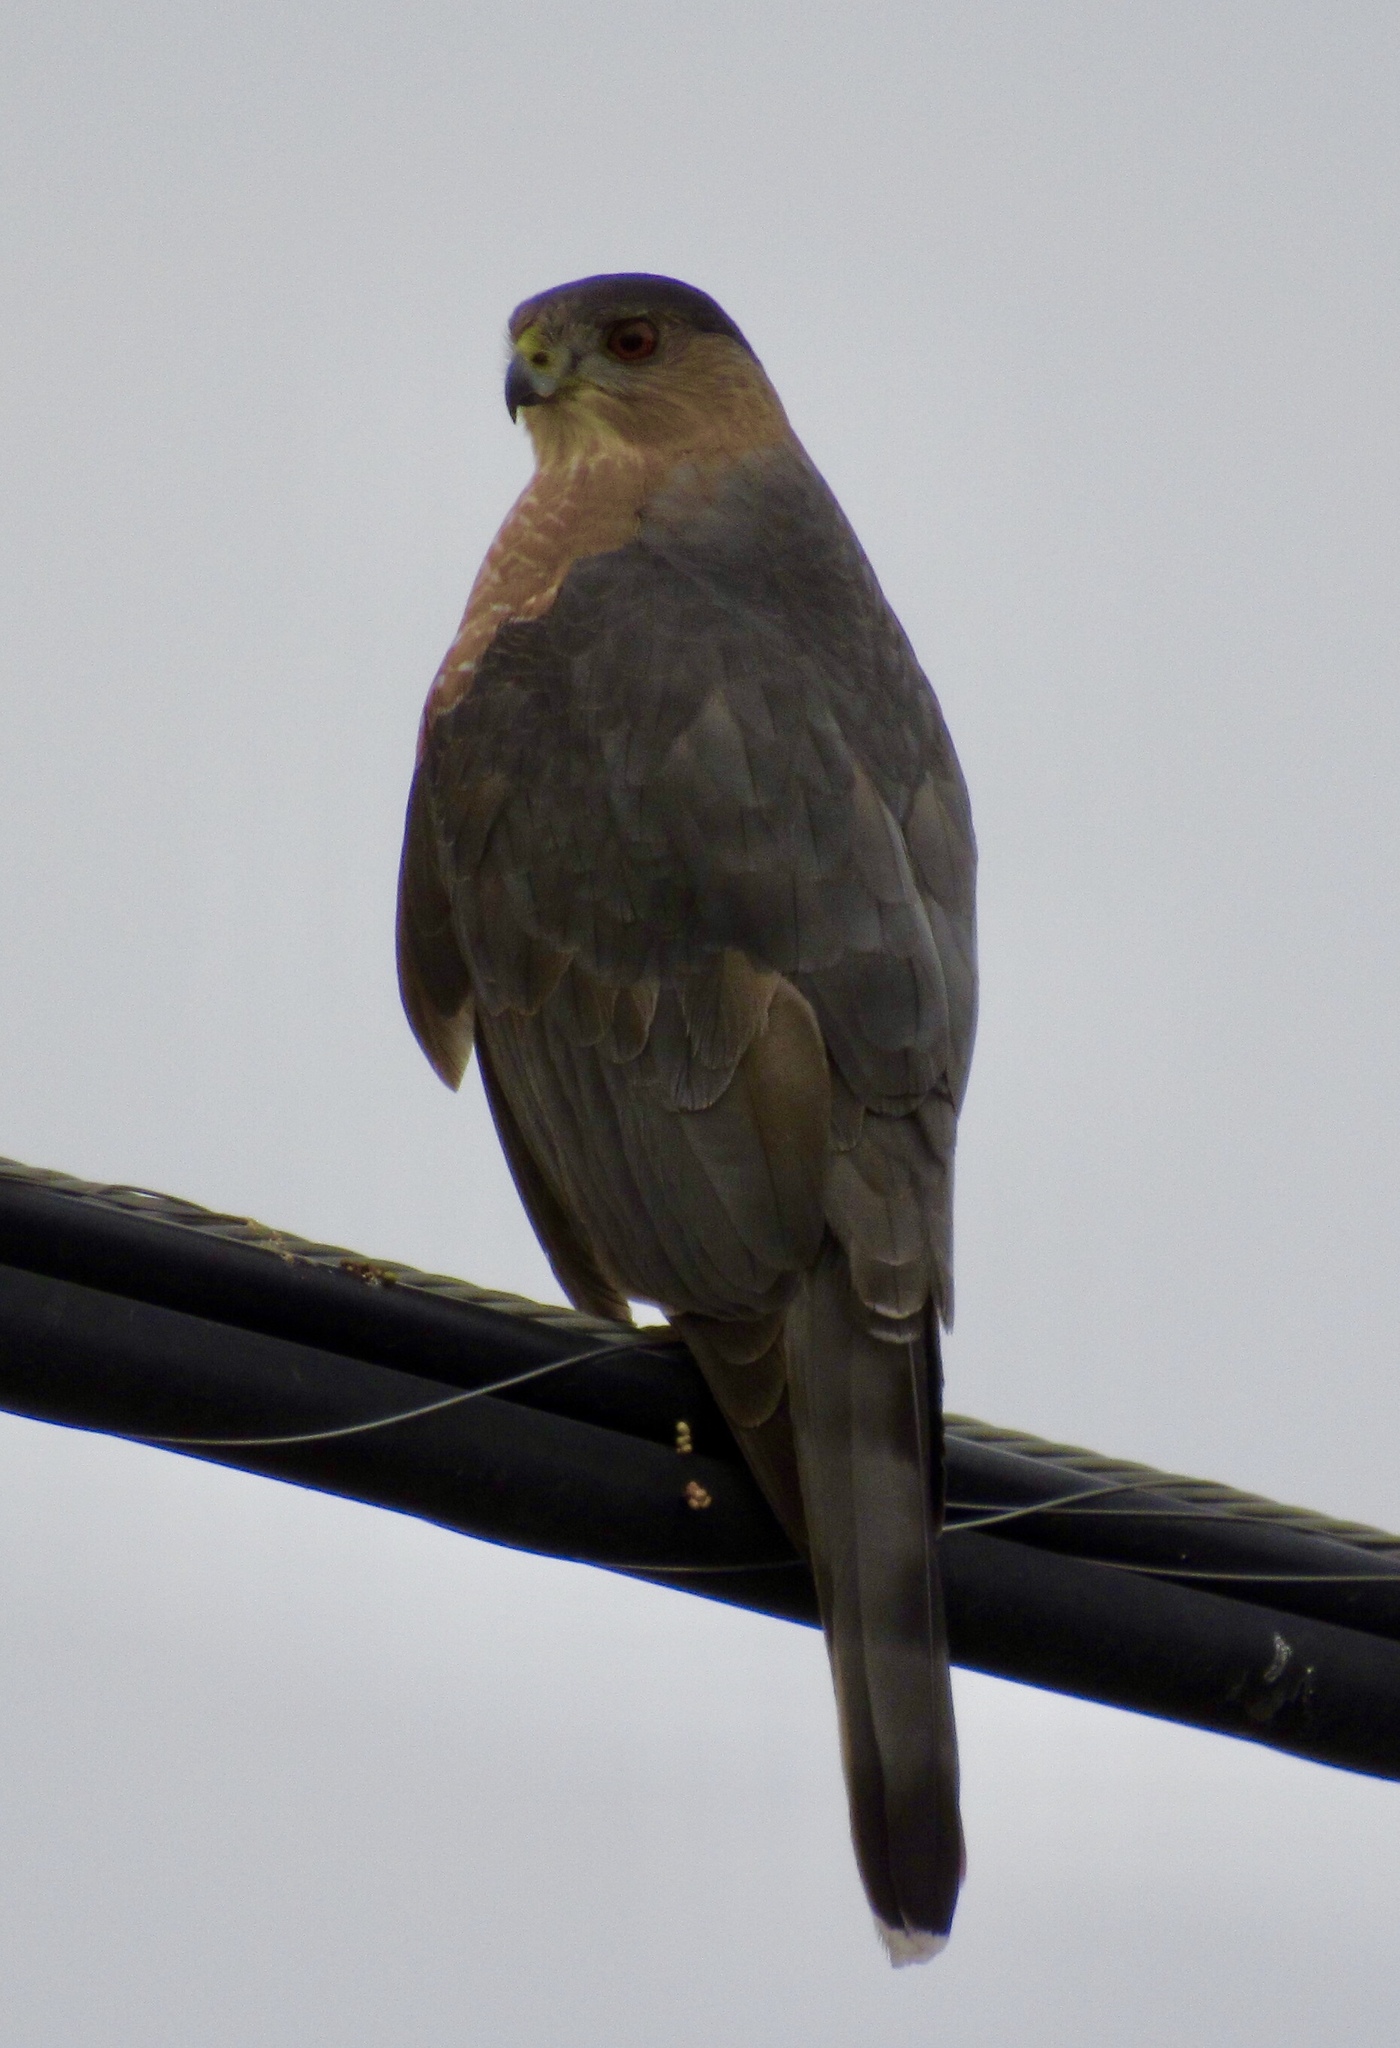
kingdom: Animalia
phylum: Chordata
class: Aves
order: Accipitriformes
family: Accipitridae
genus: Accipiter
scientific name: Accipiter cooperii
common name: Cooper's hawk
